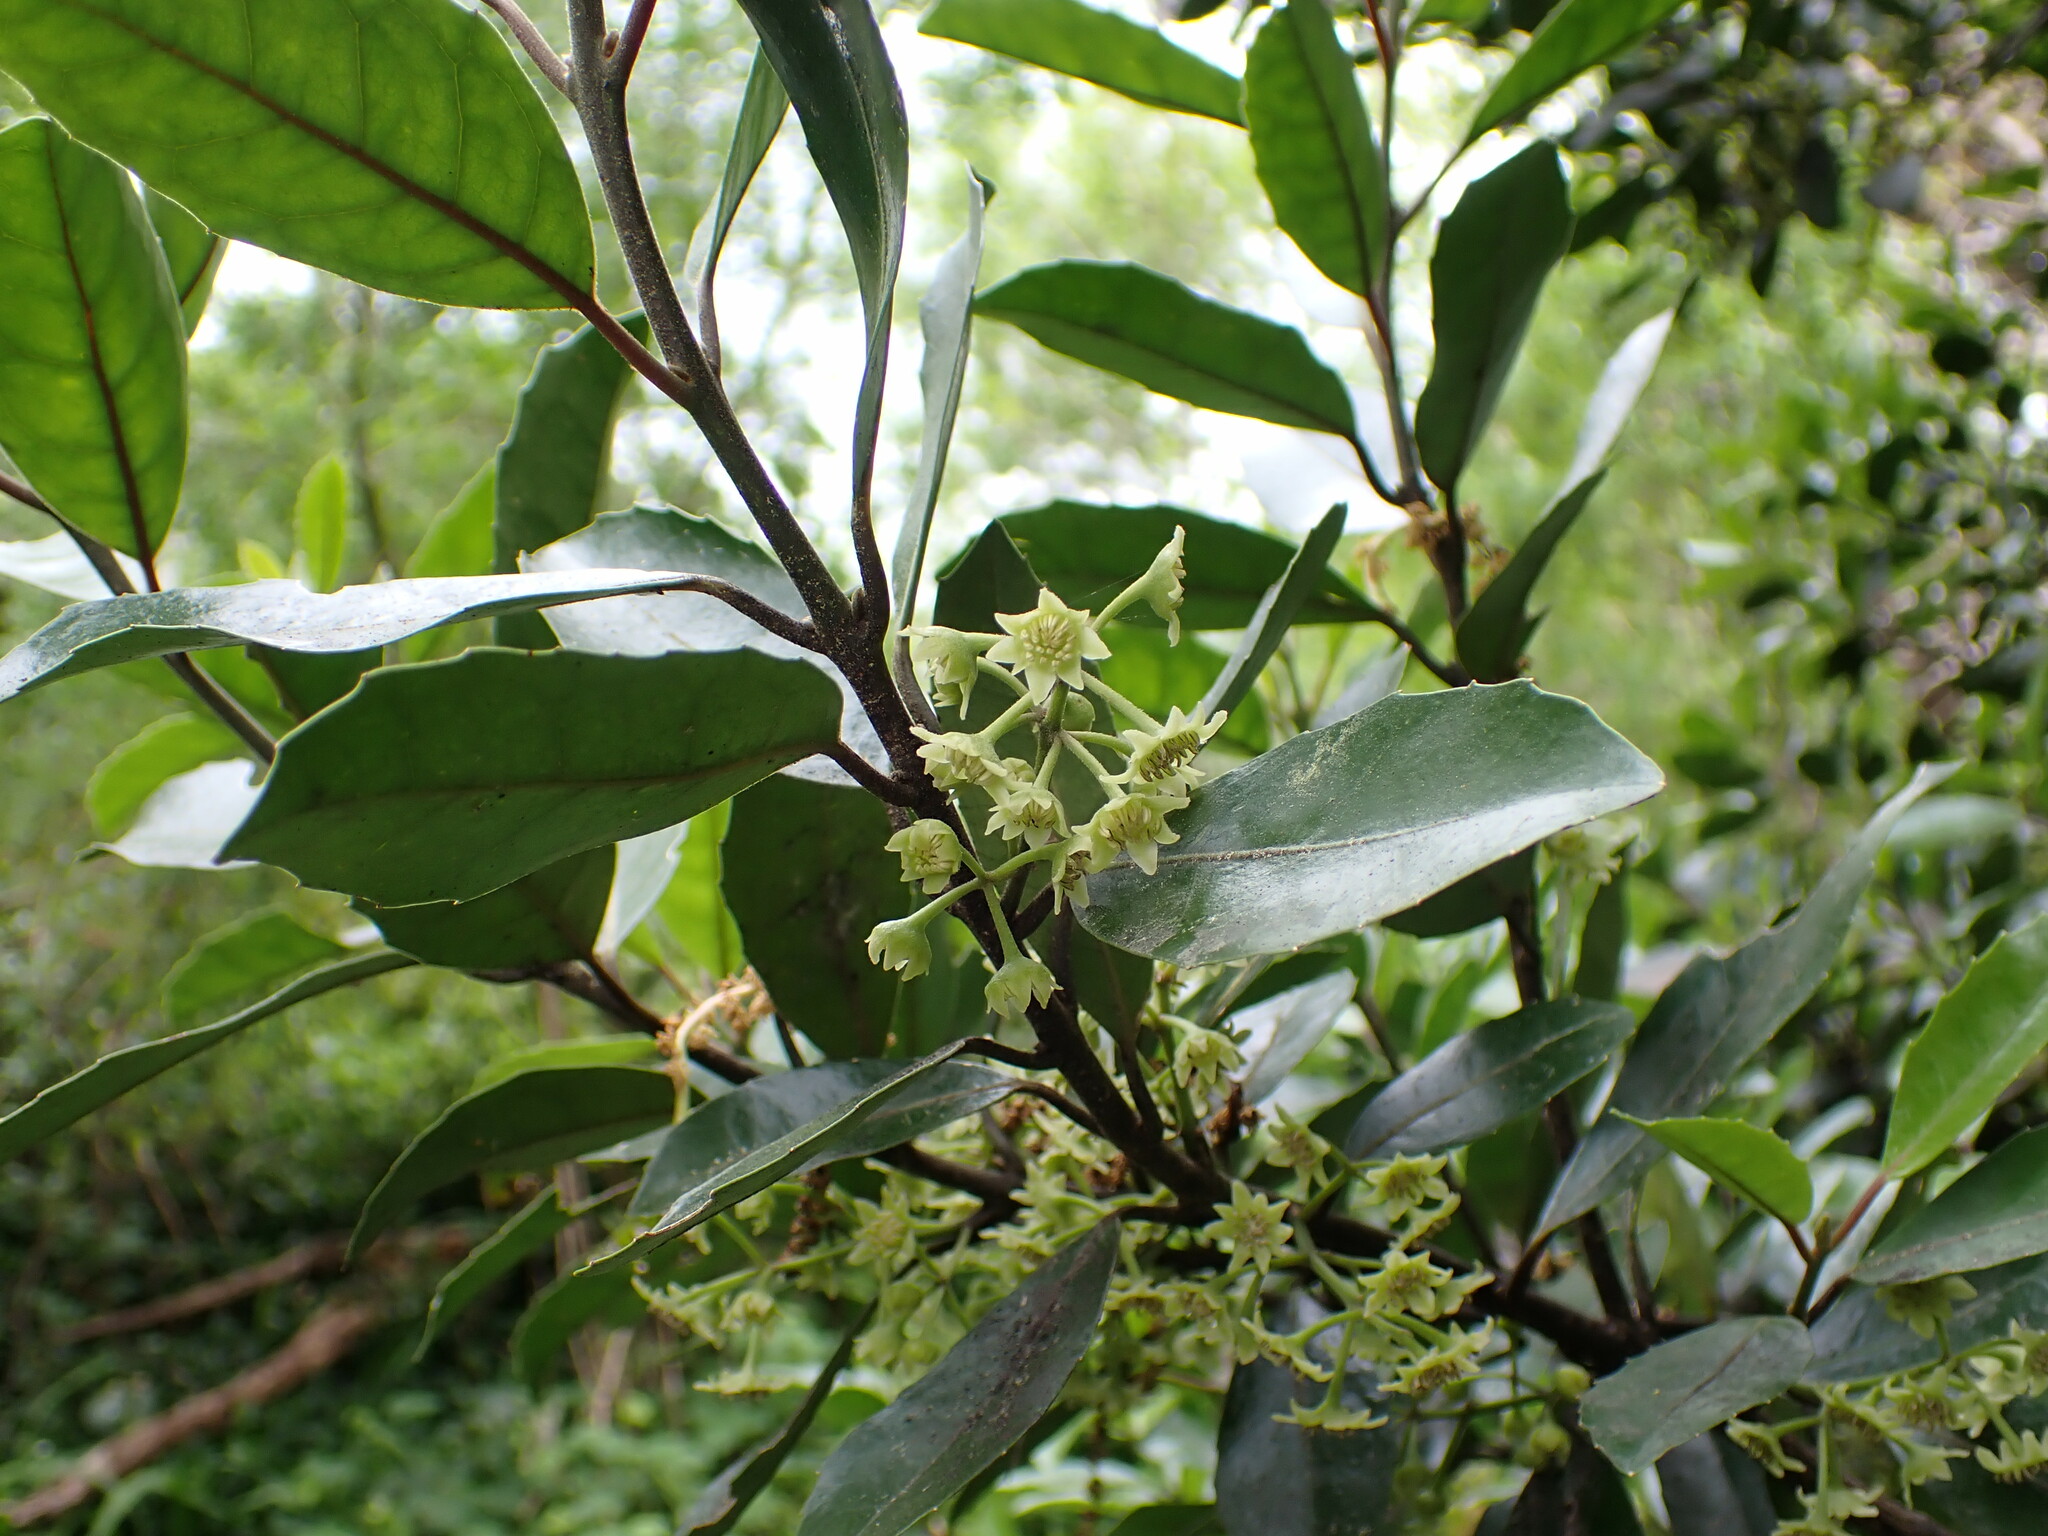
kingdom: Plantae
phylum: Tracheophyta
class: Magnoliopsida
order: Laurales
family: Monimiaceae
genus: Hedycarya
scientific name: Hedycarya arborea
